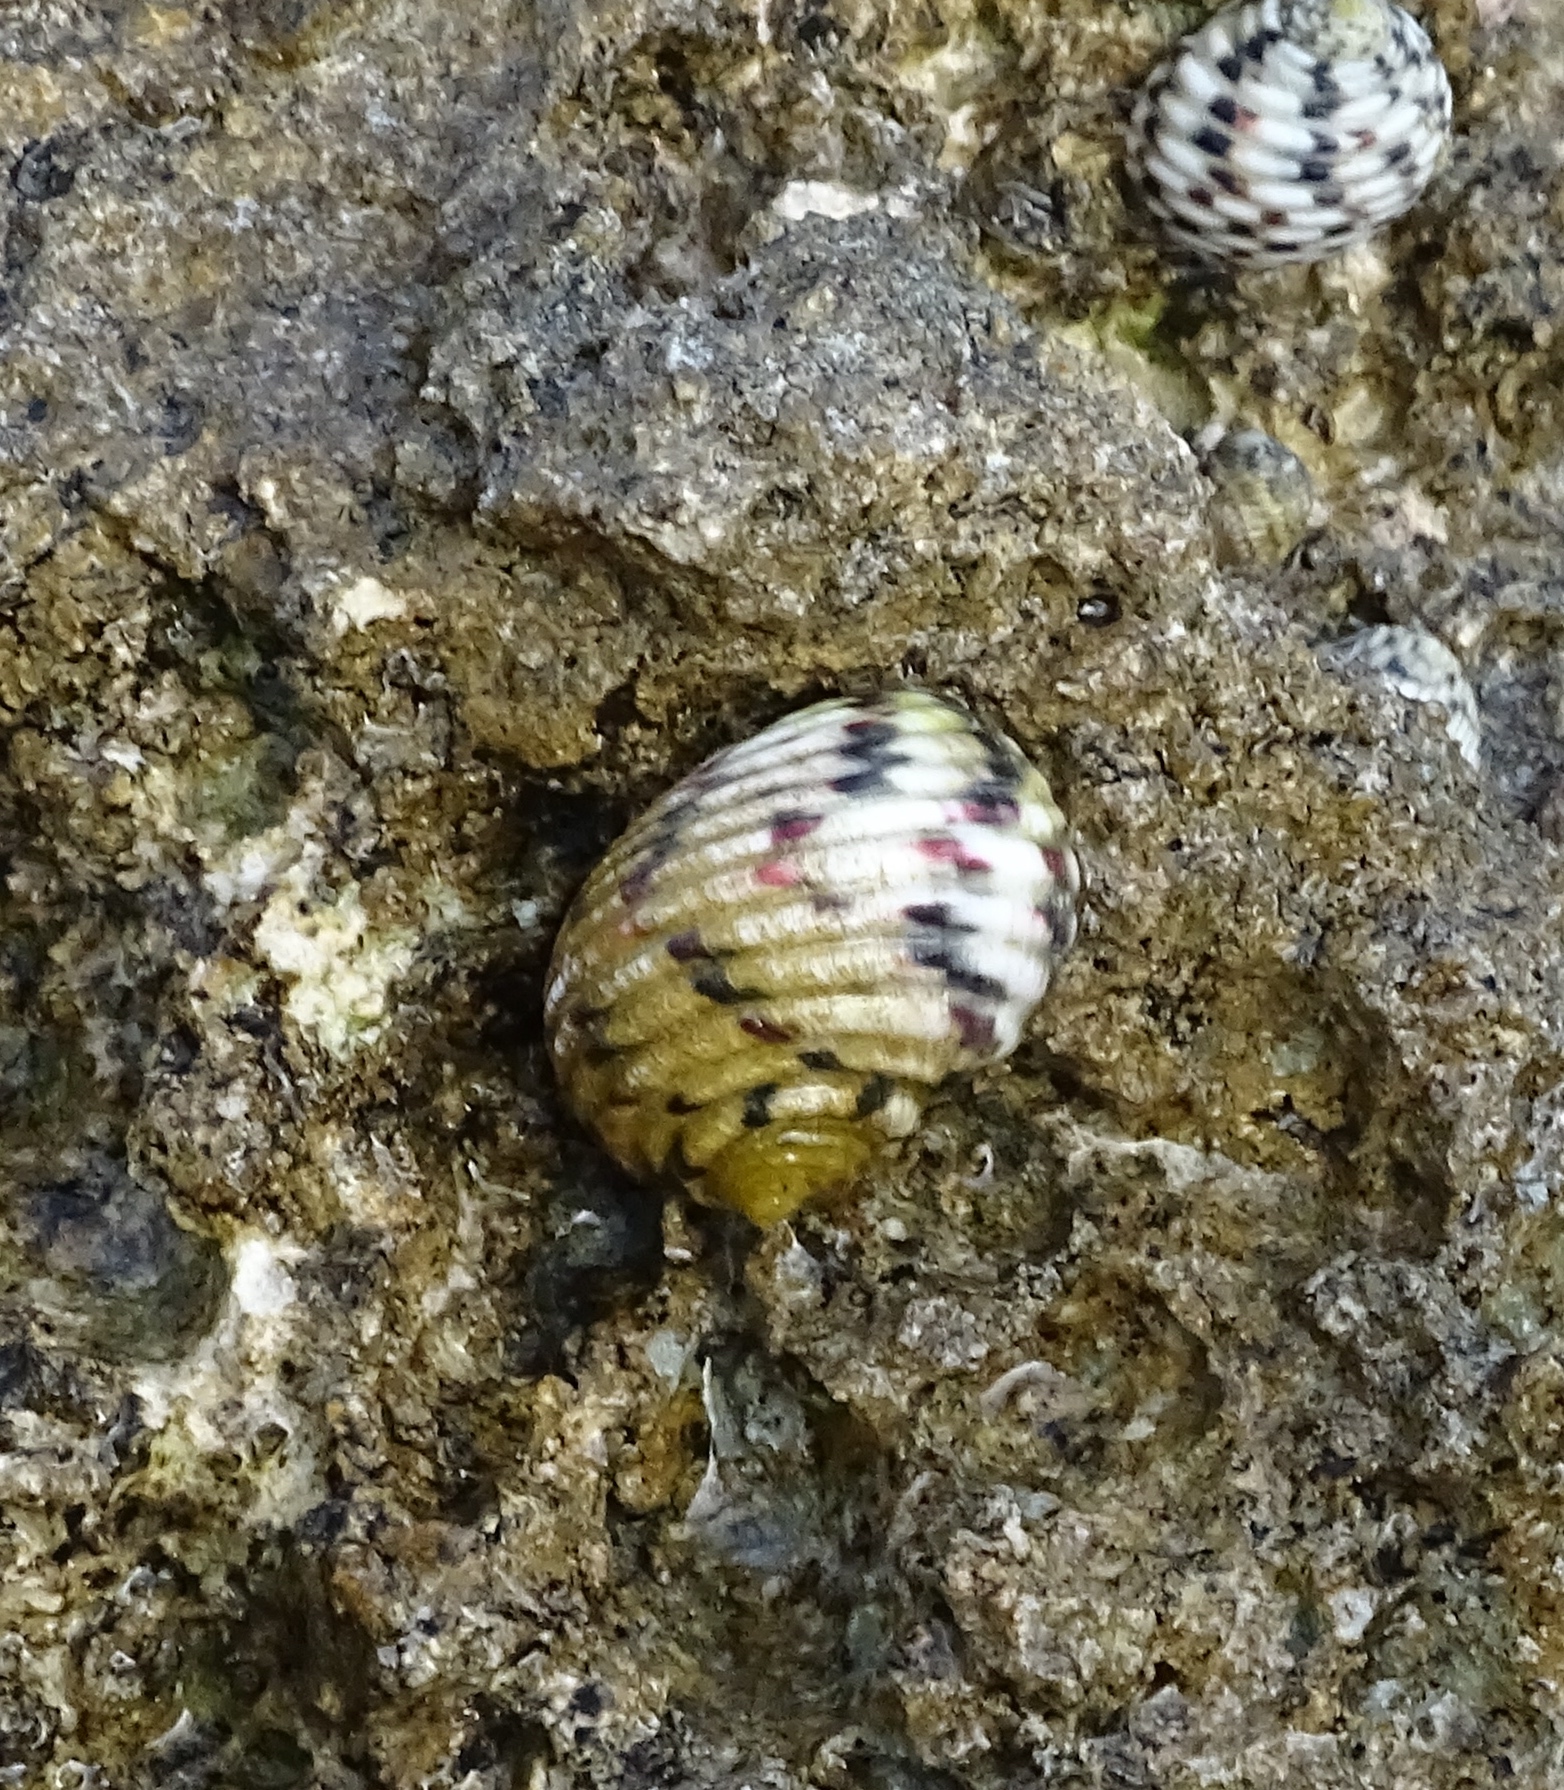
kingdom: Animalia
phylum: Mollusca
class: Gastropoda
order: Cycloneritida
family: Neritidae
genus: Nerita
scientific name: Nerita versicolor
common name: Four-tooth nerite
